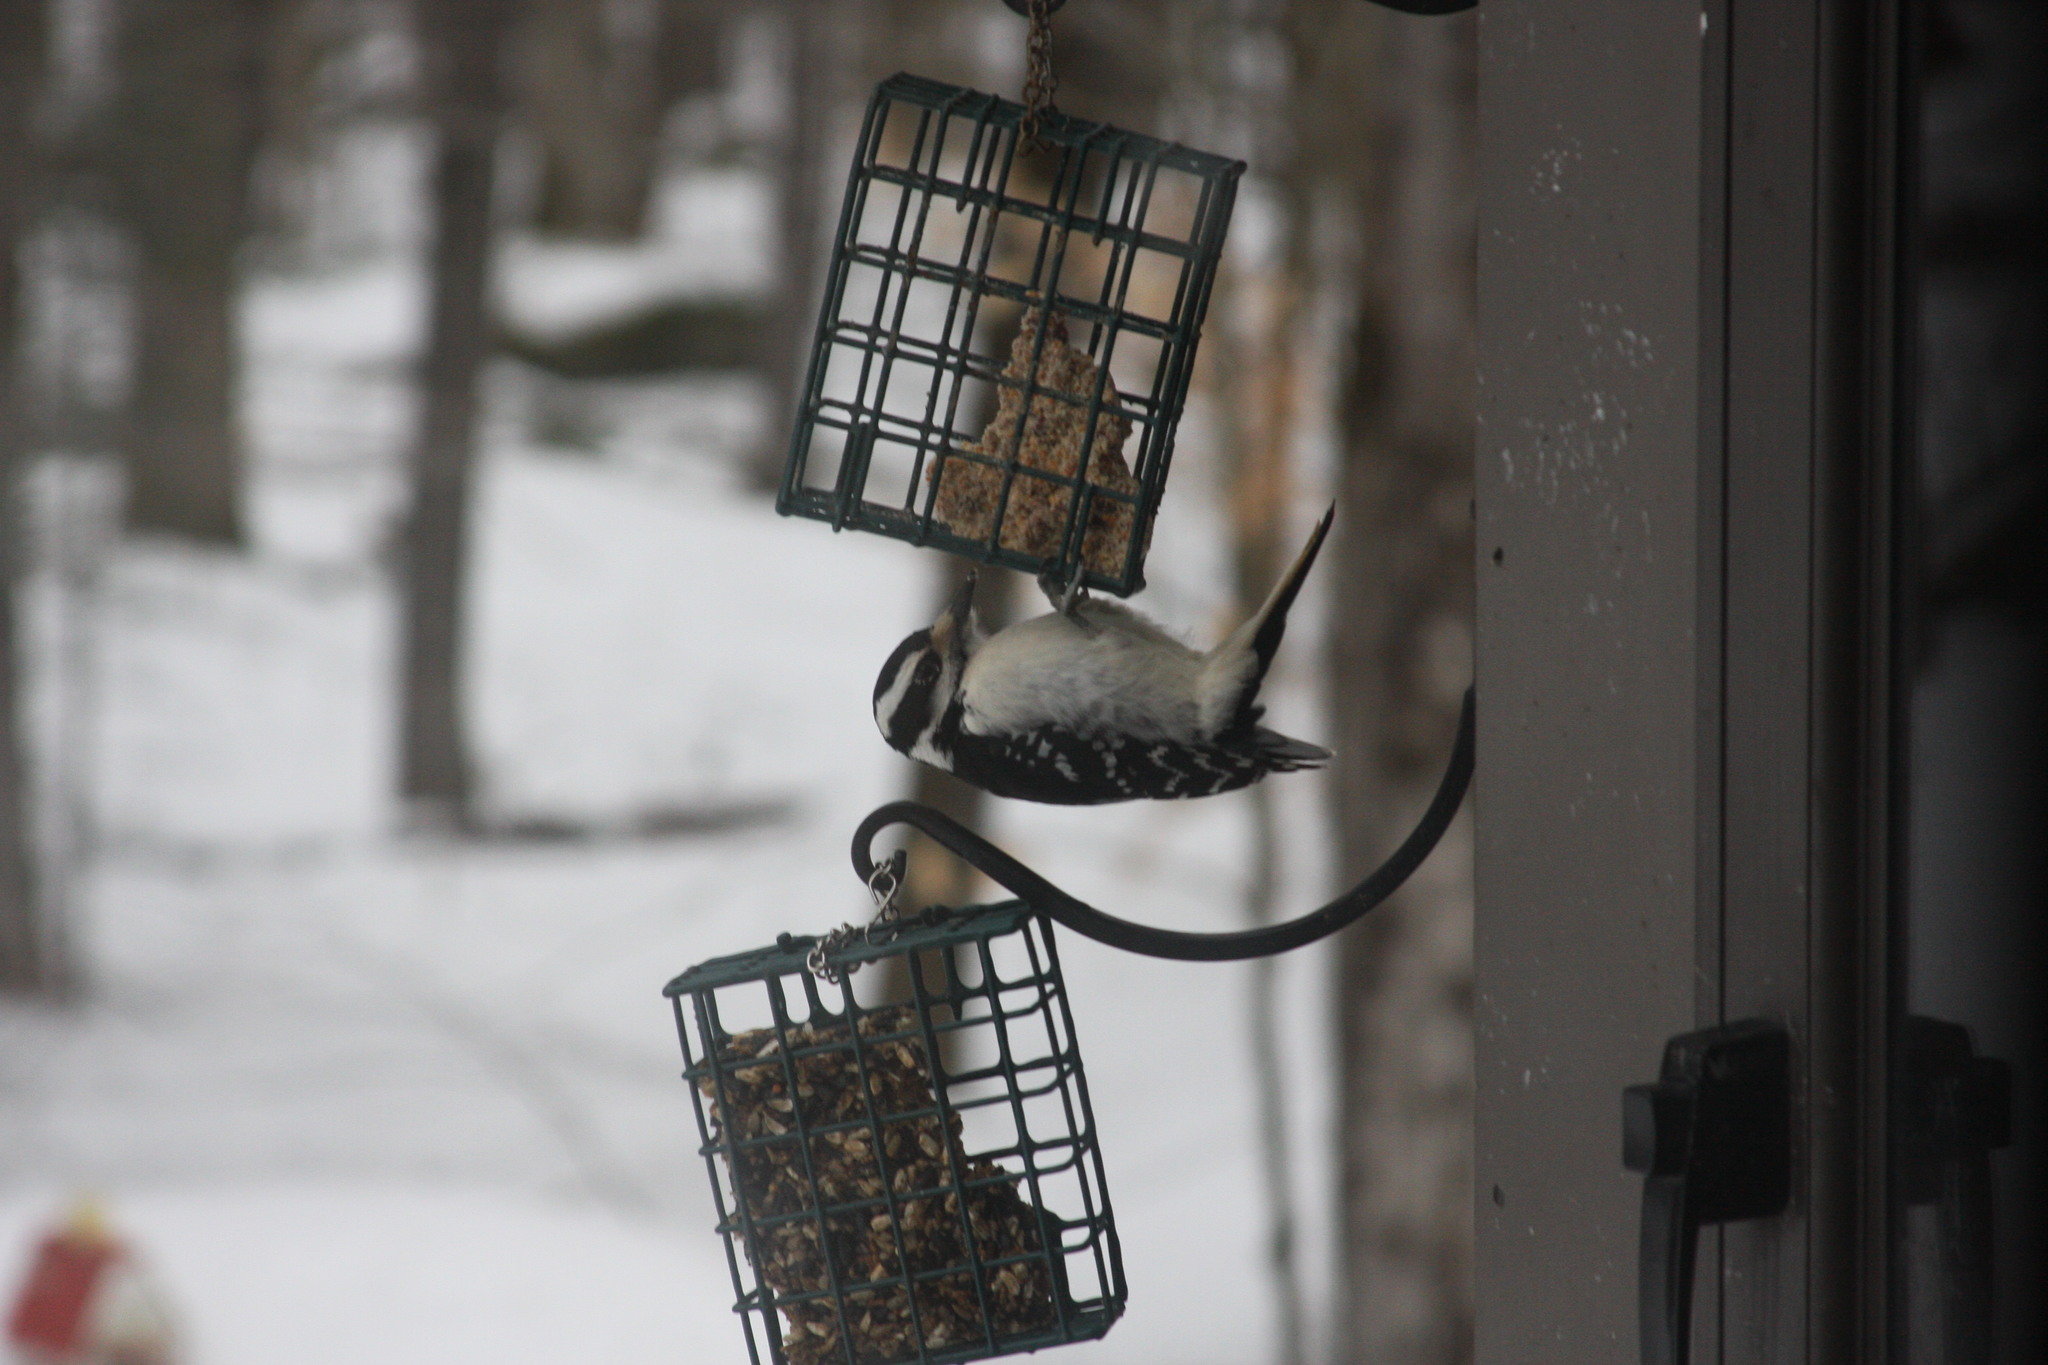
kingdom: Animalia
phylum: Chordata
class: Aves
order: Piciformes
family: Picidae
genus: Dryobates
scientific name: Dryobates pubescens
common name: Downy woodpecker
